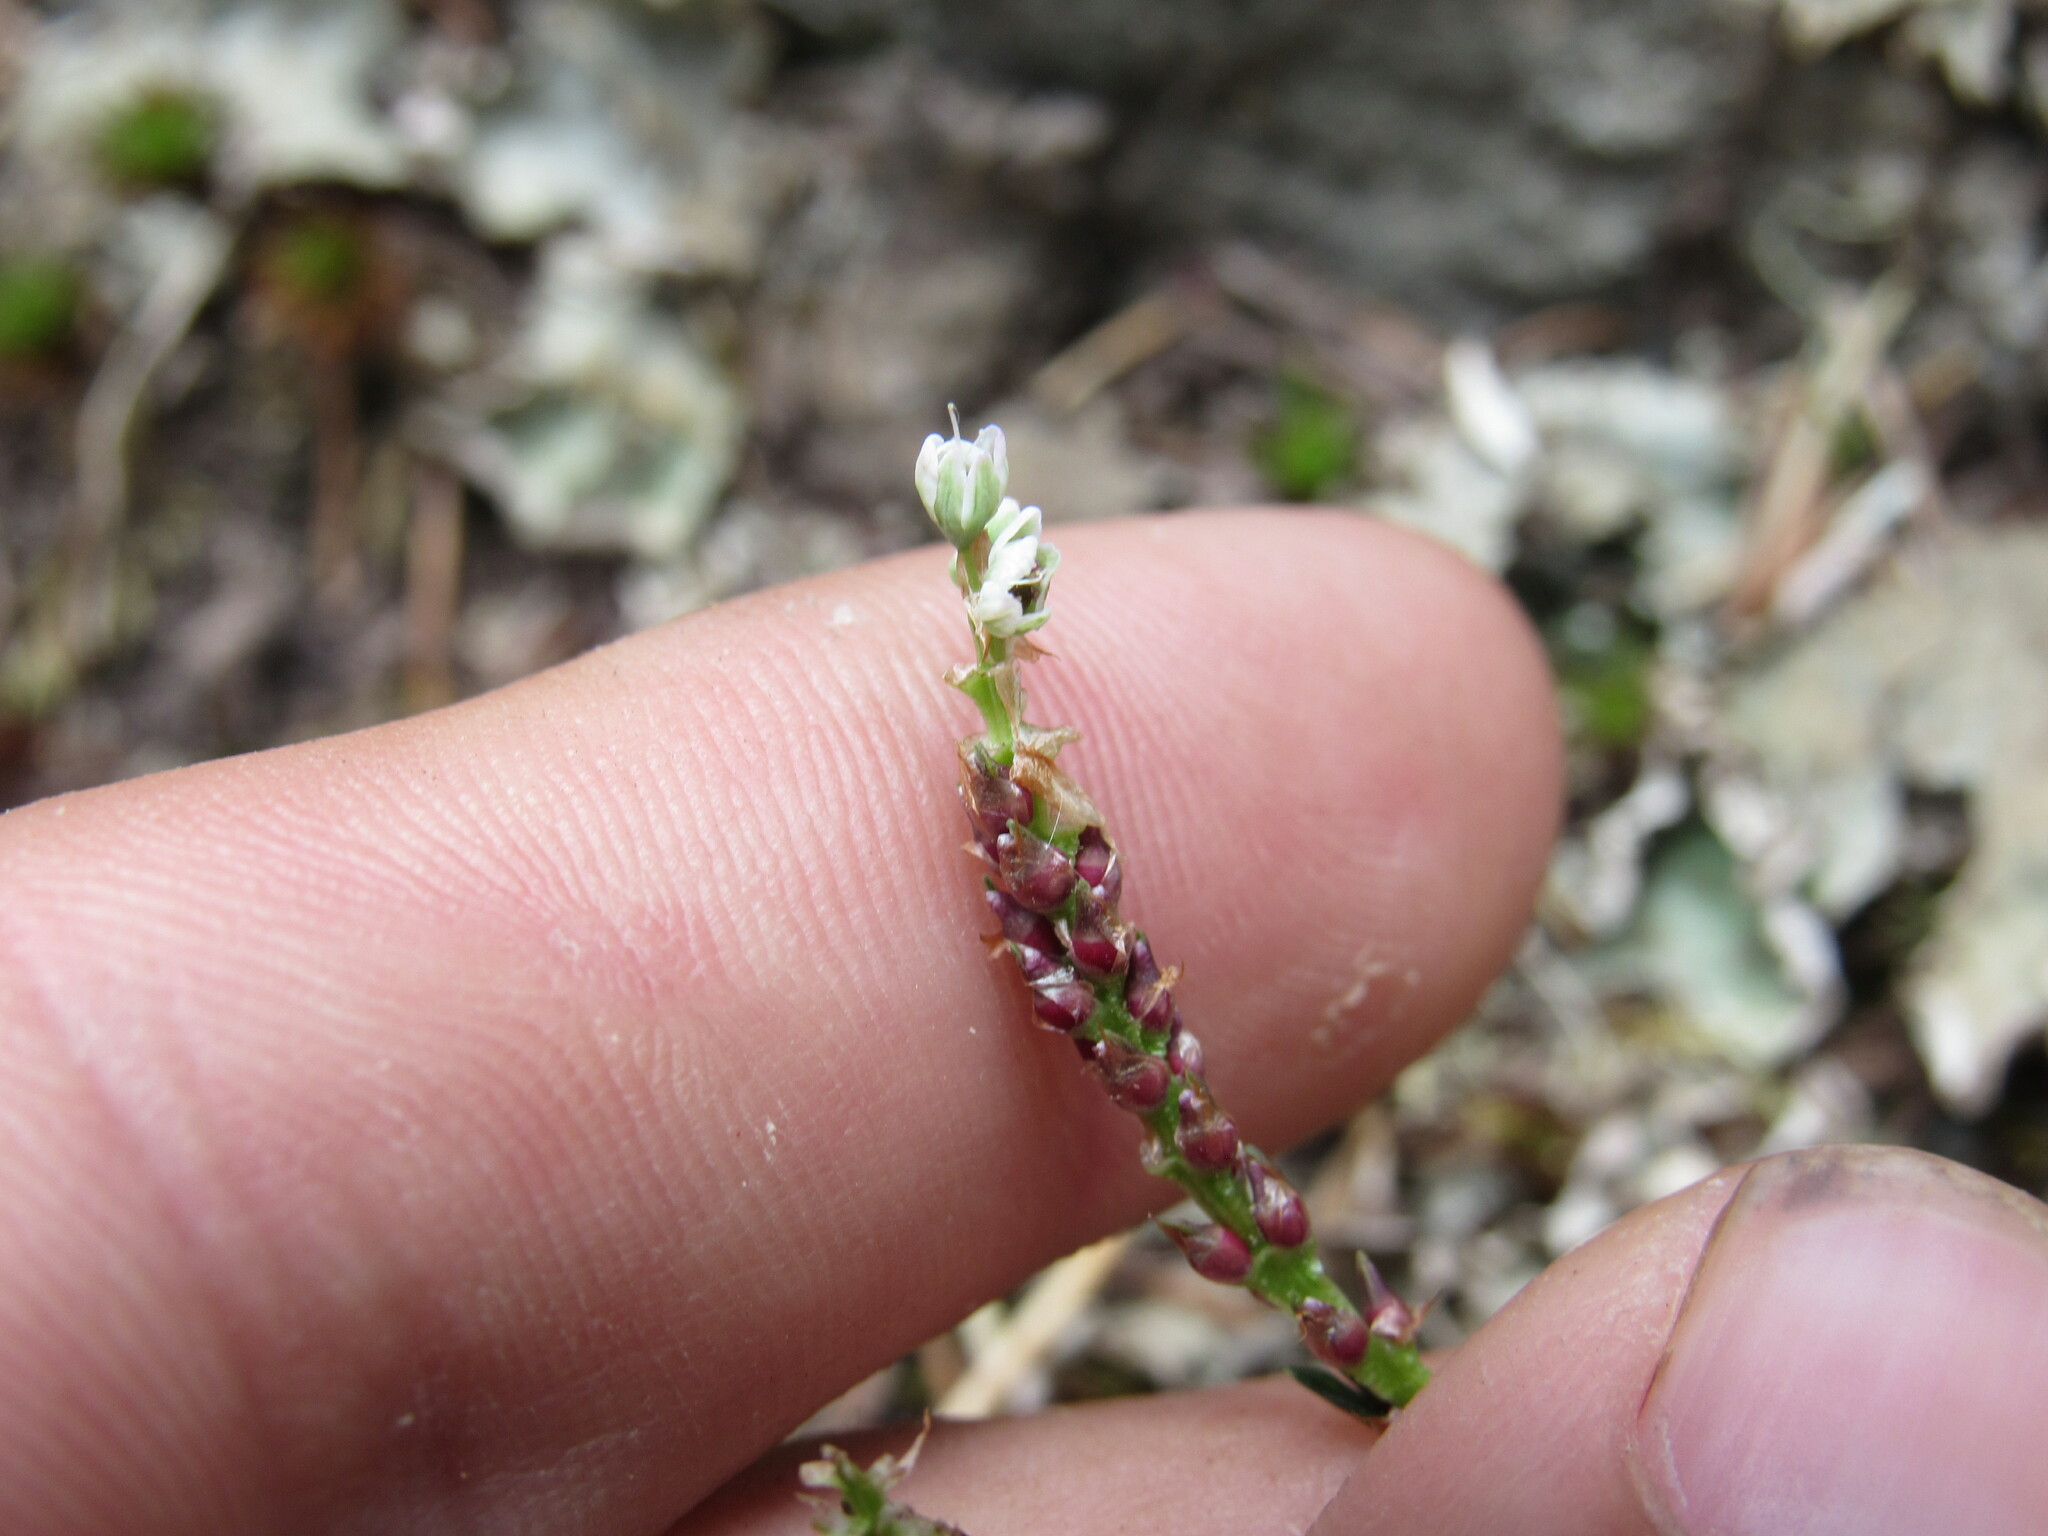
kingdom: Plantae
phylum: Tracheophyta
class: Magnoliopsida
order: Caryophyllales
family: Polygonaceae
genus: Bistorta
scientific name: Bistorta vivipara
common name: Alpine bistort
